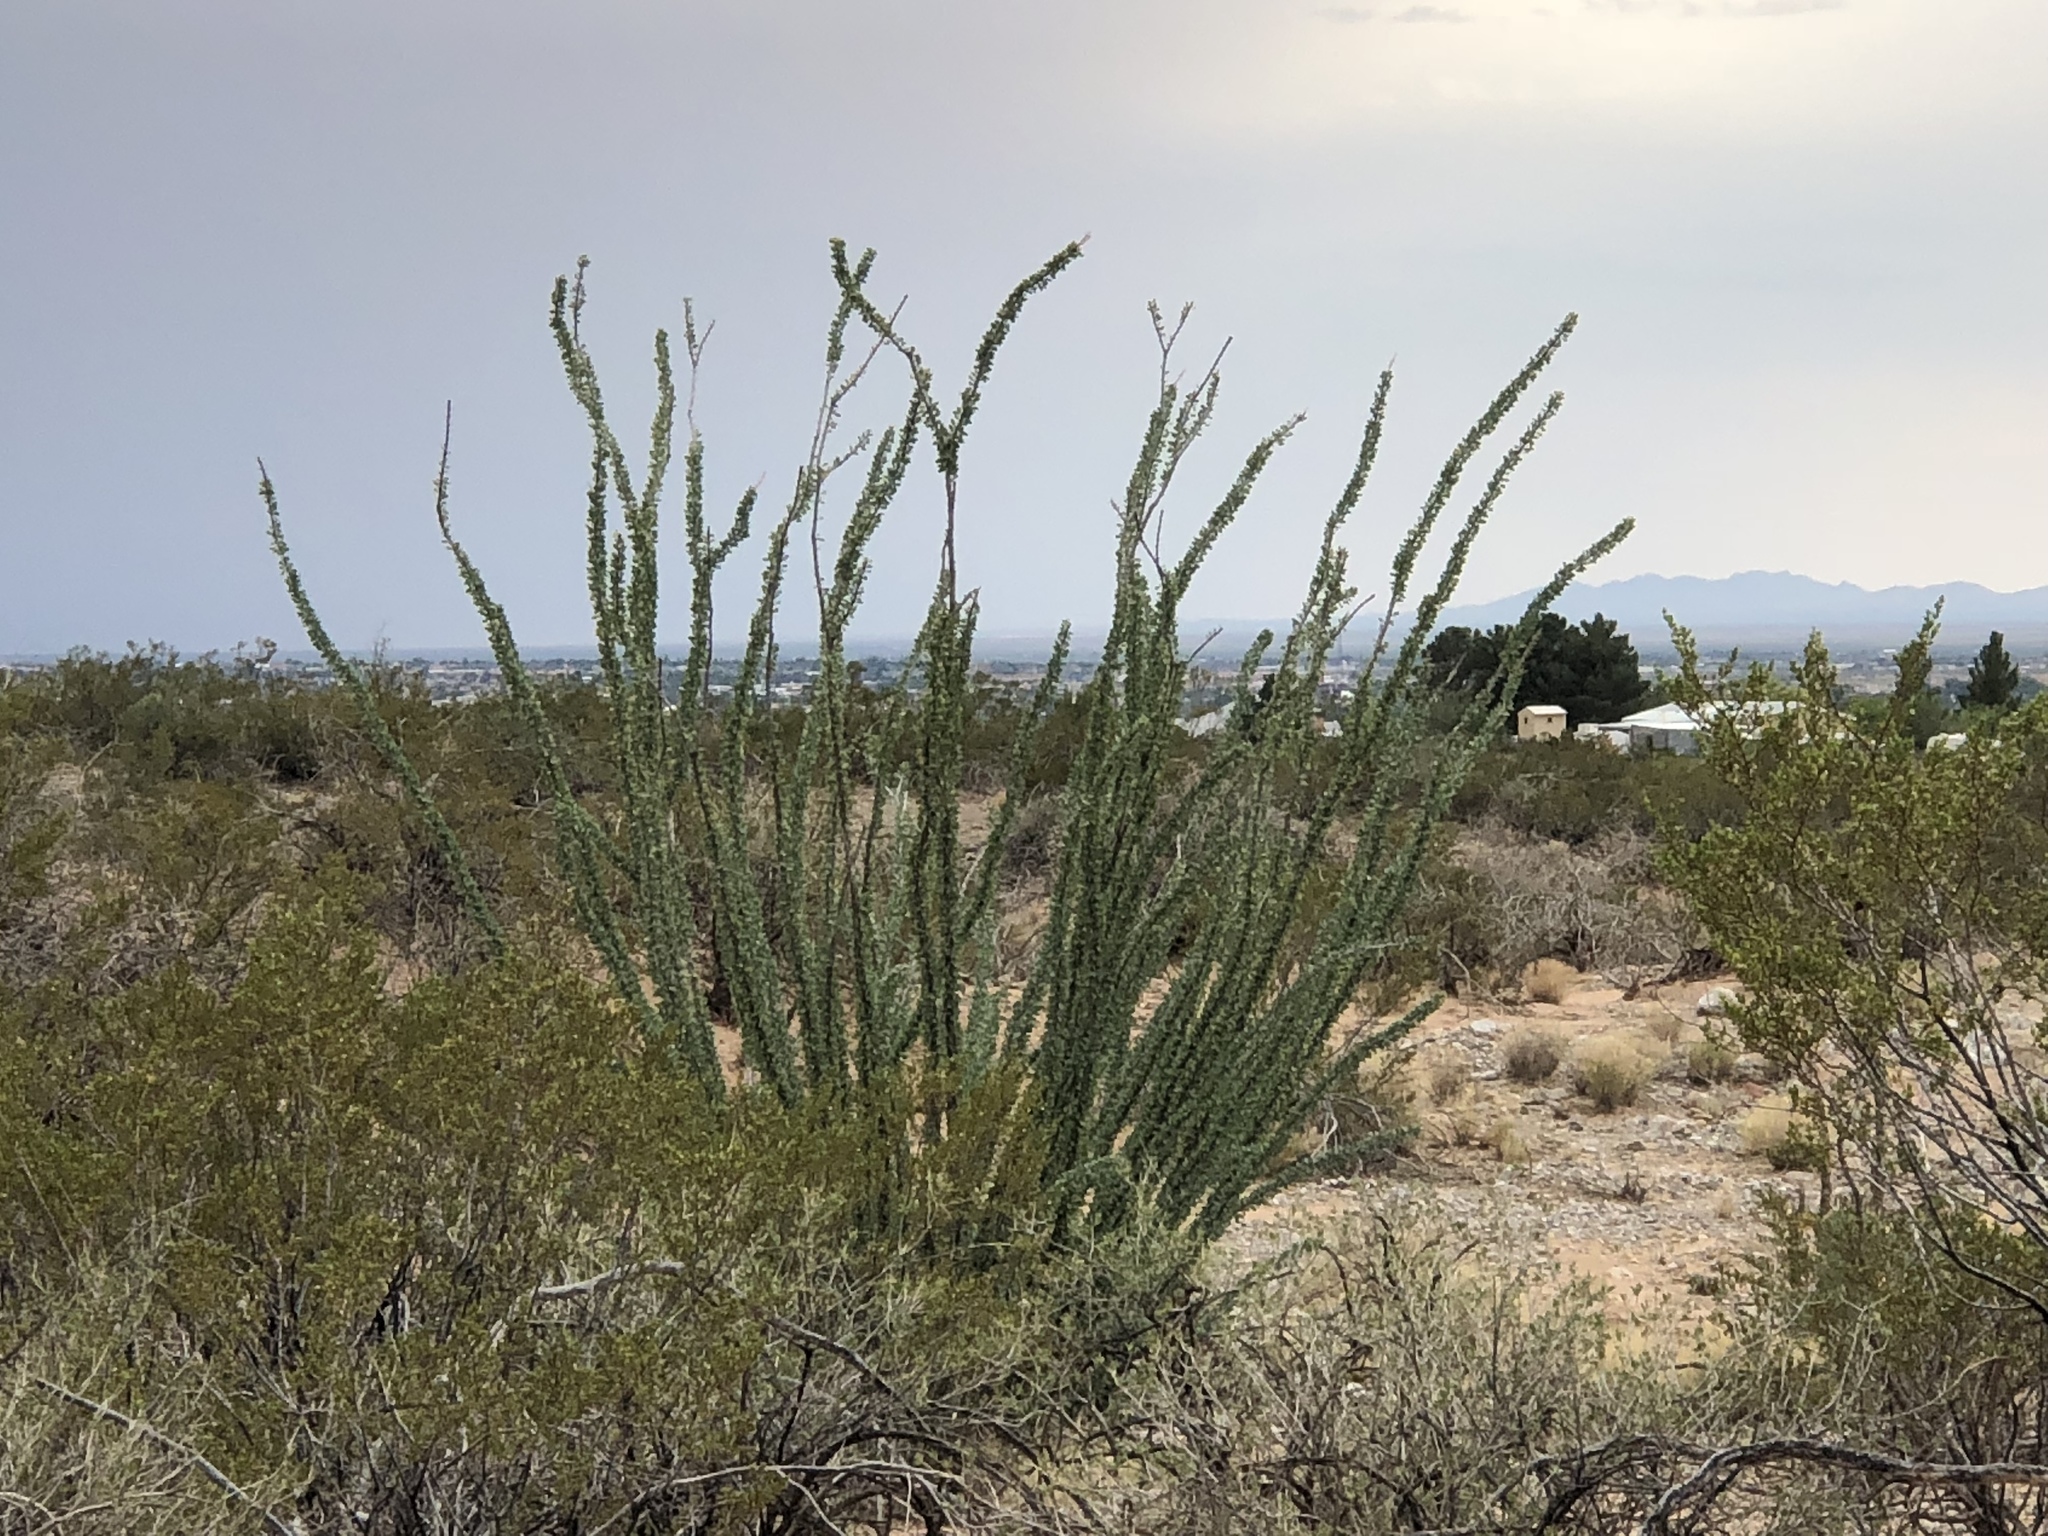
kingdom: Plantae
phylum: Tracheophyta
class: Magnoliopsida
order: Ericales
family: Fouquieriaceae
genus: Fouquieria
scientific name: Fouquieria splendens
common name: Vine-cactus
